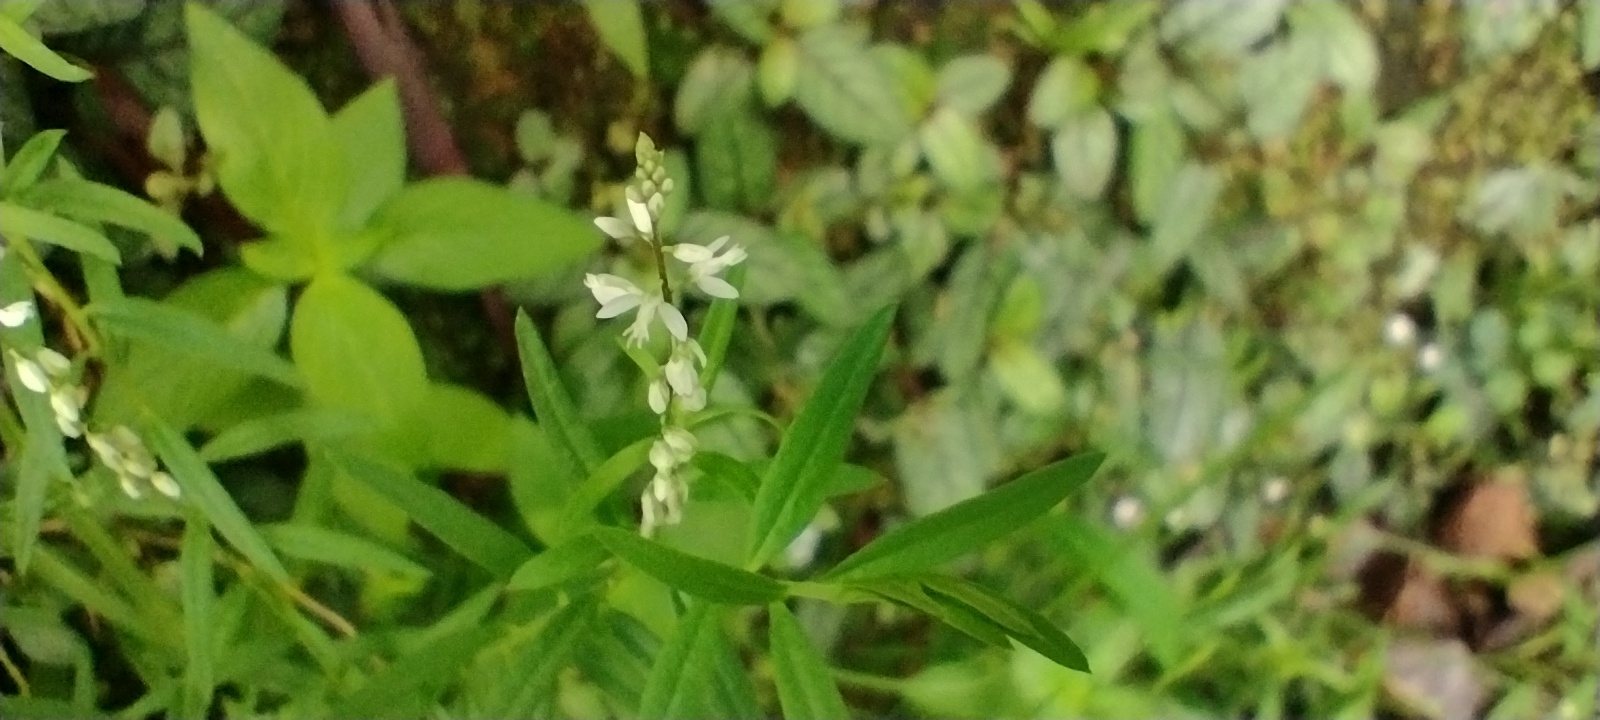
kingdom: Plantae
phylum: Tracheophyta
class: Magnoliopsida
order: Fabales
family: Polygalaceae
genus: Polygala
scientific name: Polygala paniculata
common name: Orosne
